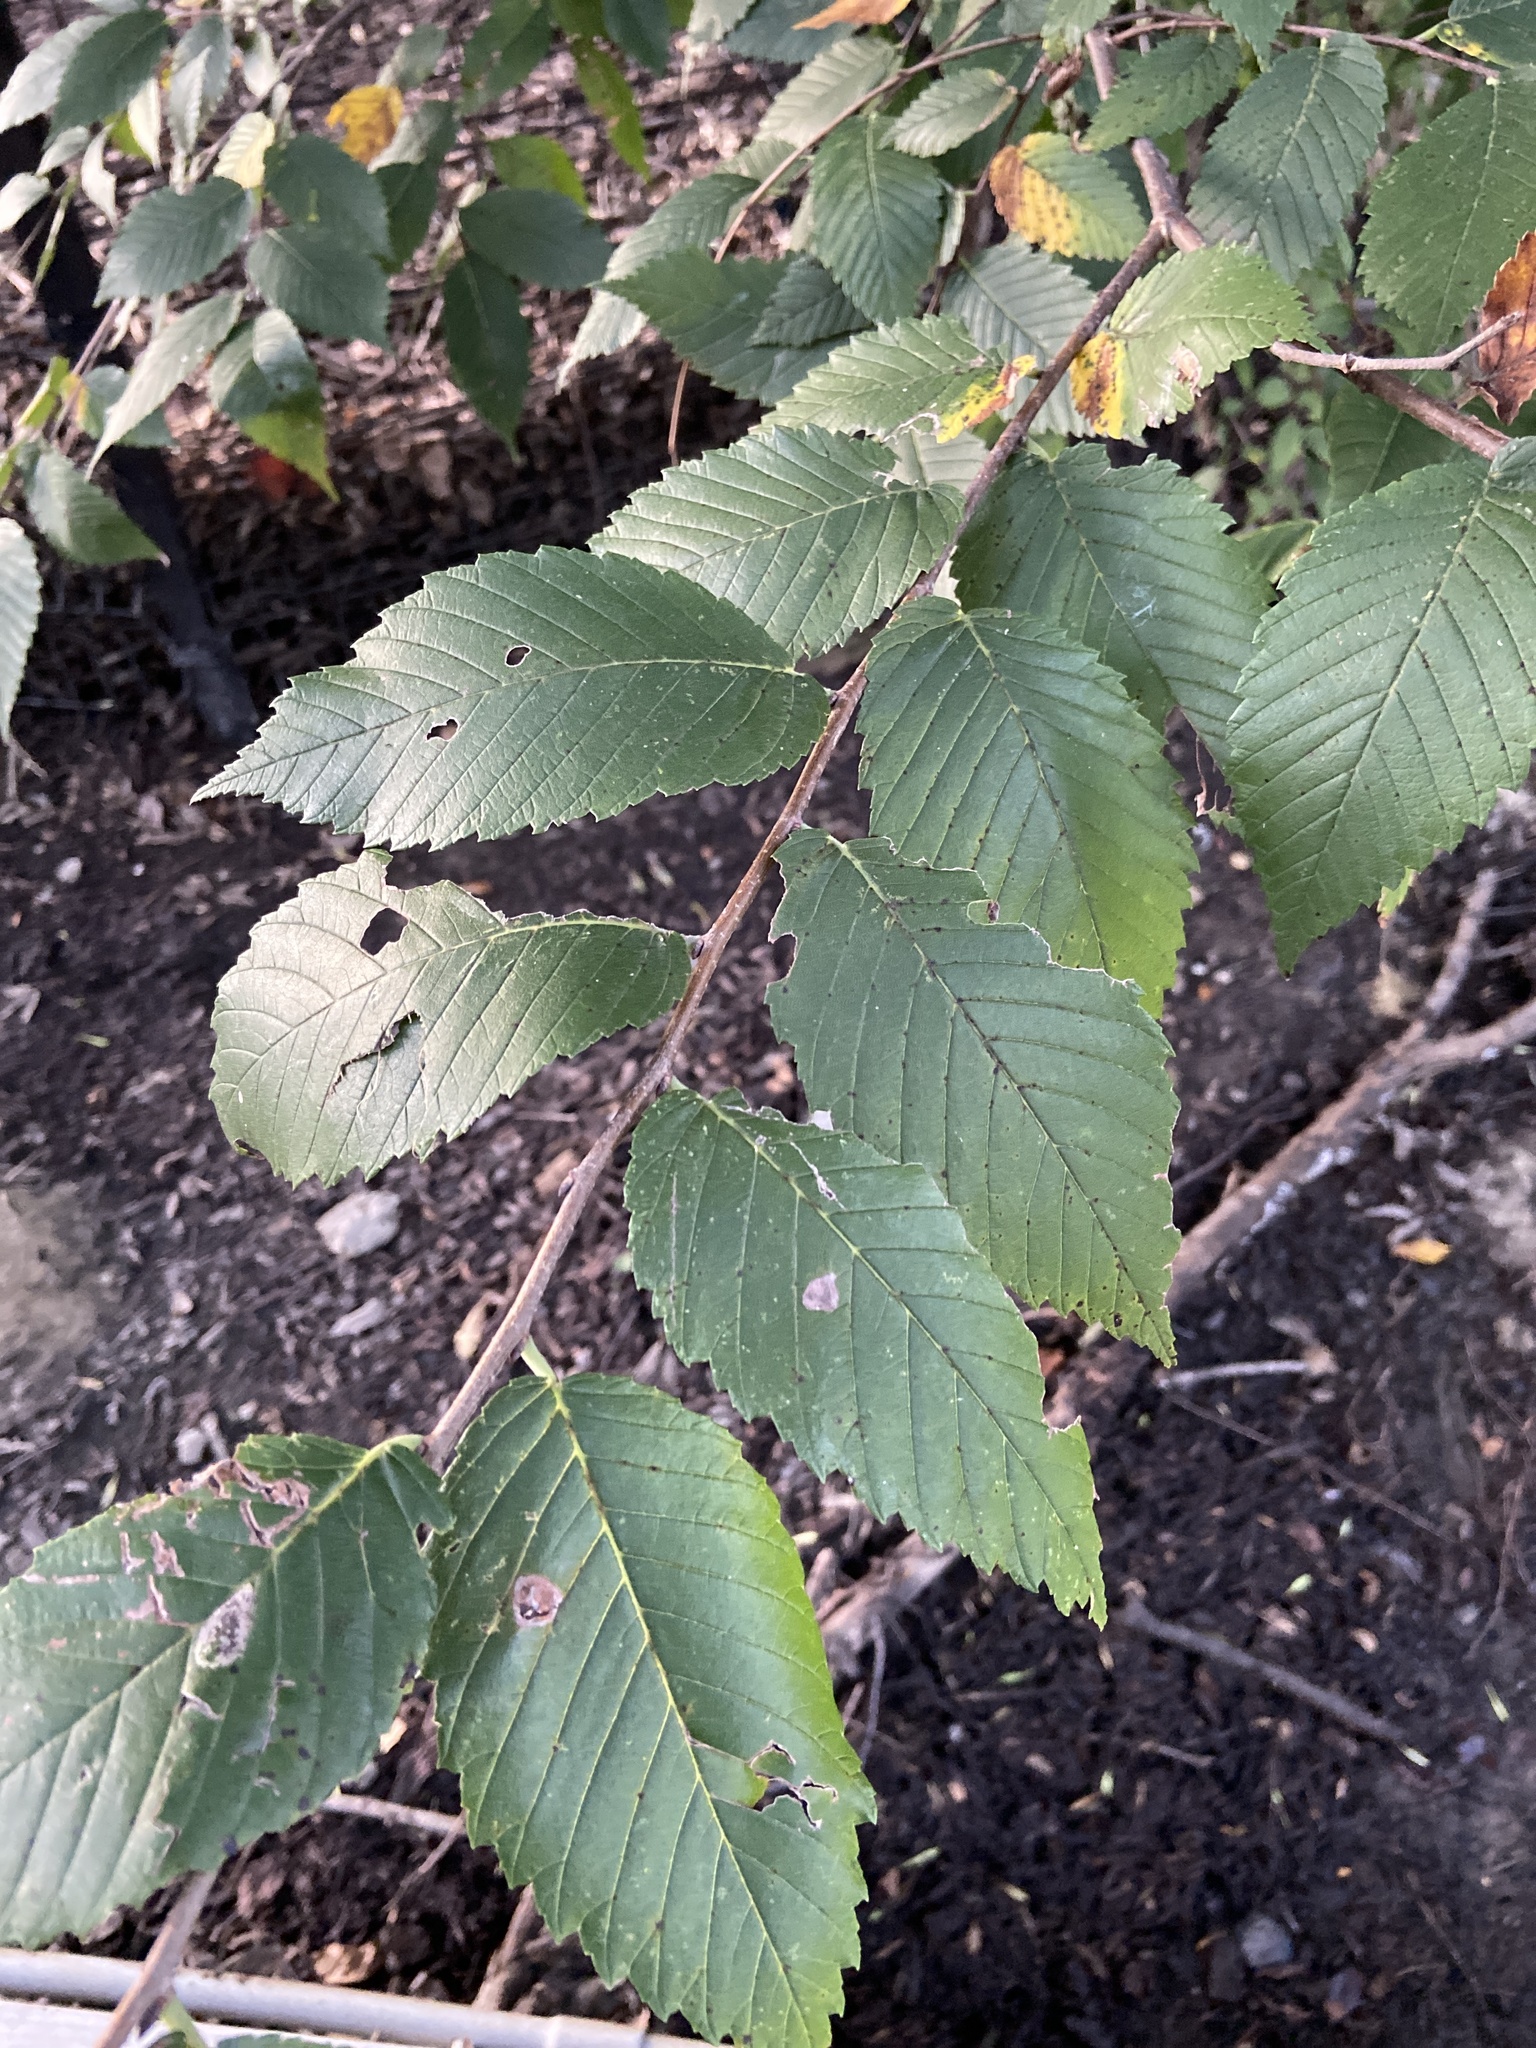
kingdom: Plantae
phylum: Tracheophyta
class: Magnoliopsida
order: Rosales
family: Ulmaceae
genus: Ulmus
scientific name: Ulmus americana
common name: American elm
